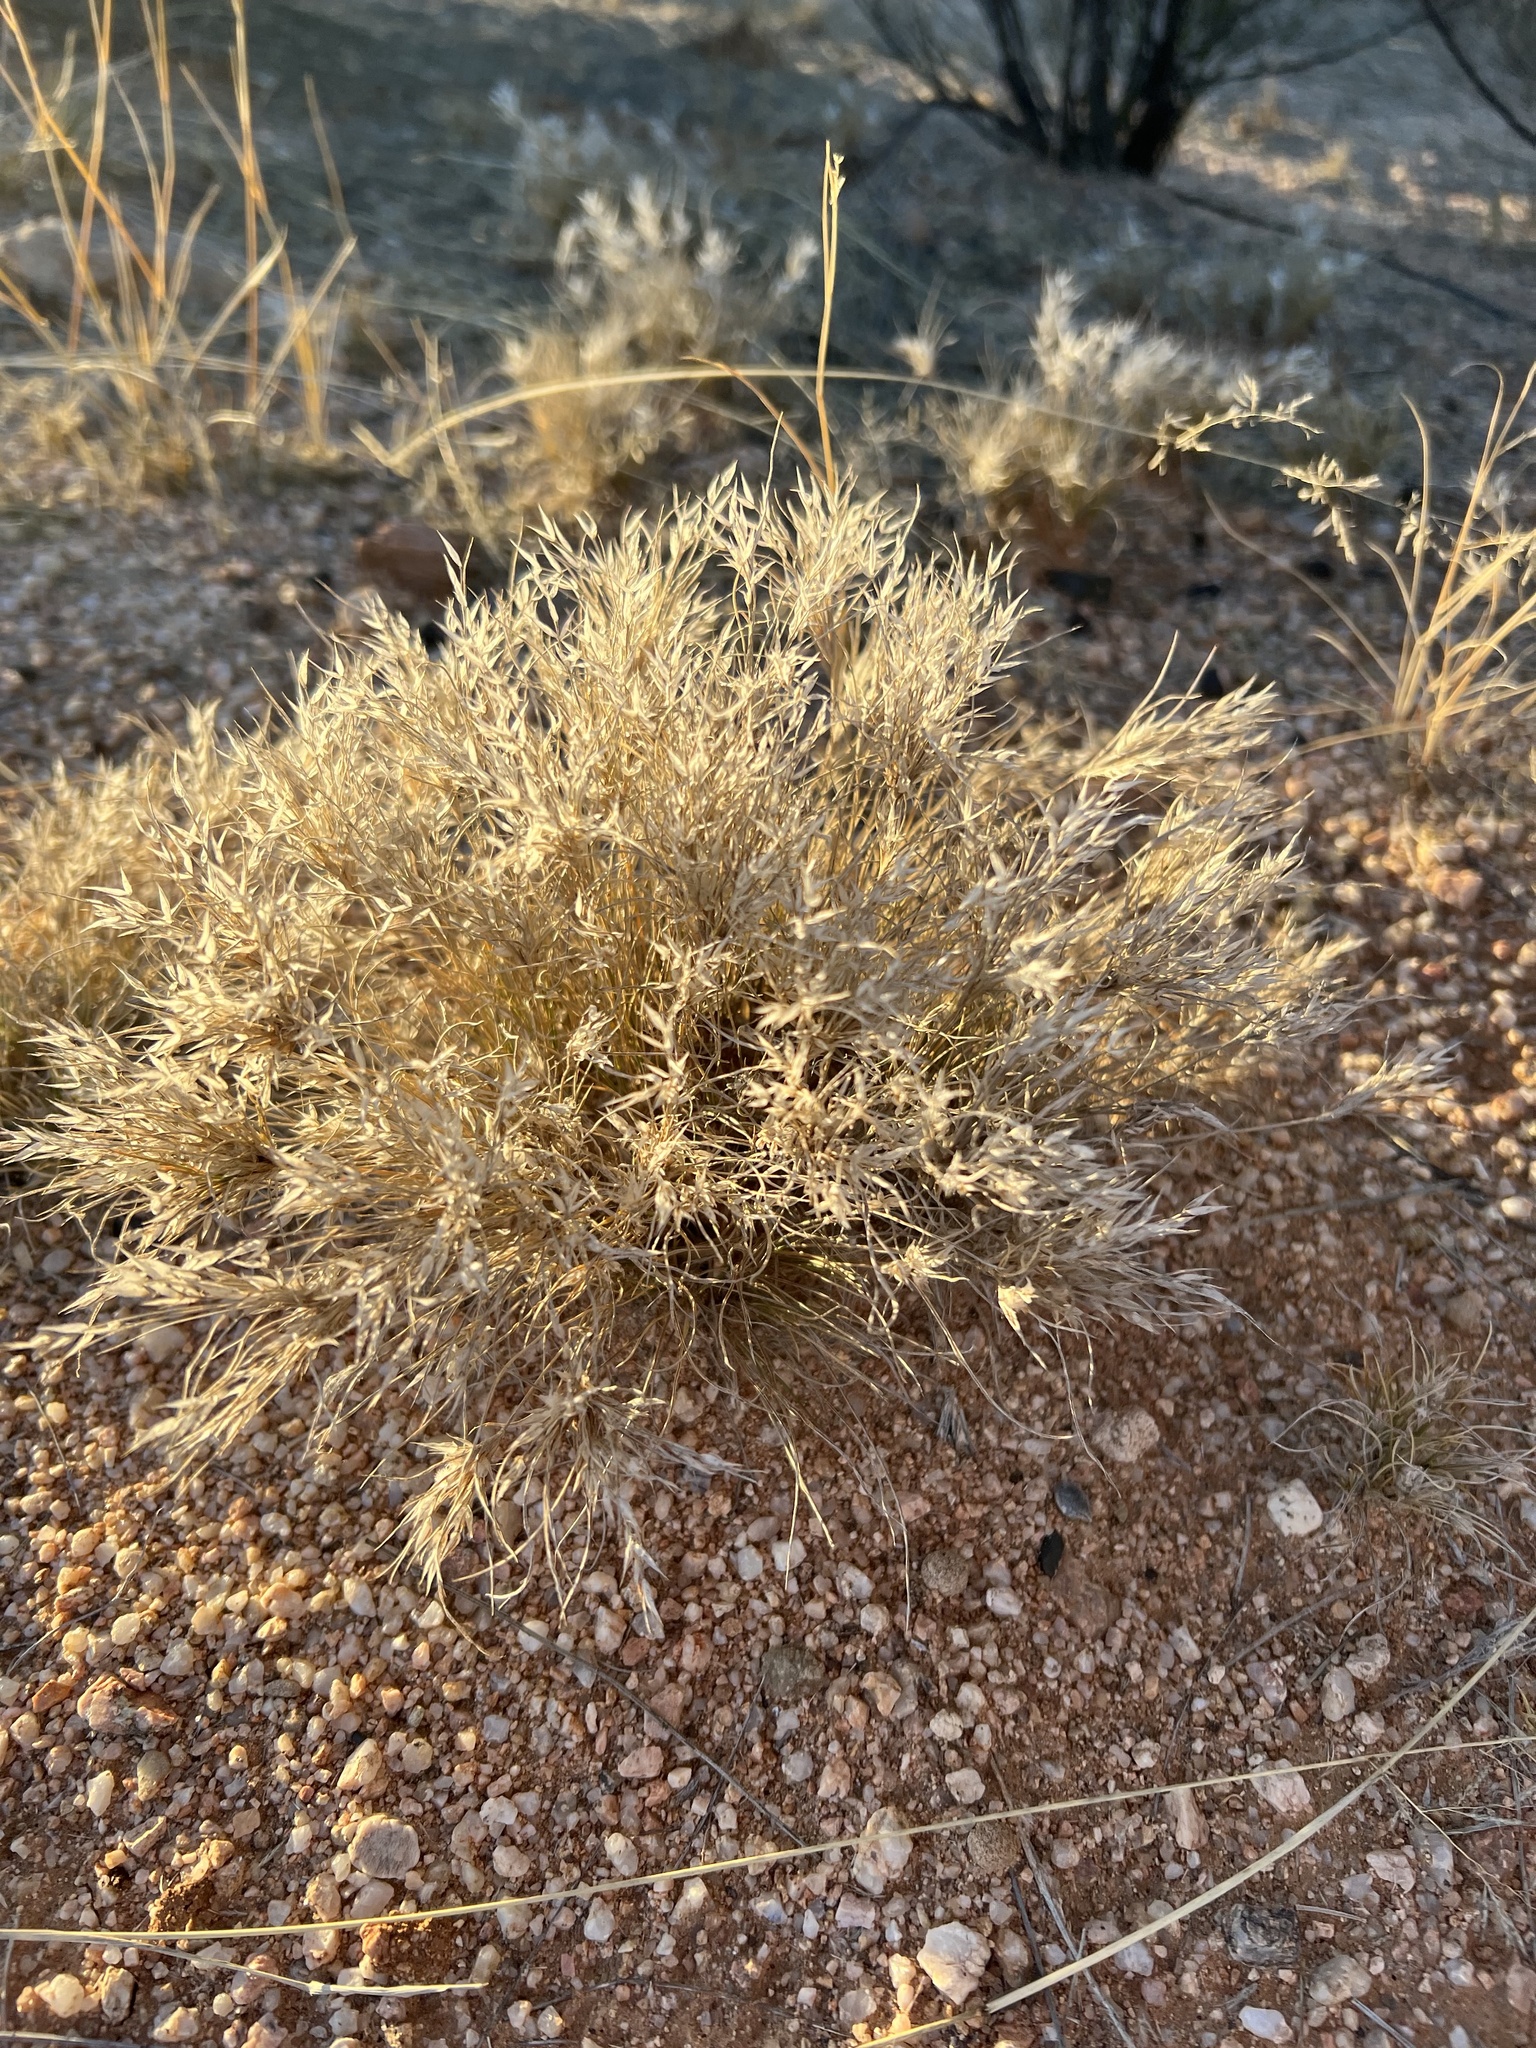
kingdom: Plantae
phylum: Tracheophyta
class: Liliopsida
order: Poales
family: Poaceae
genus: Dasyochloa
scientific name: Dasyochloa pulchella
